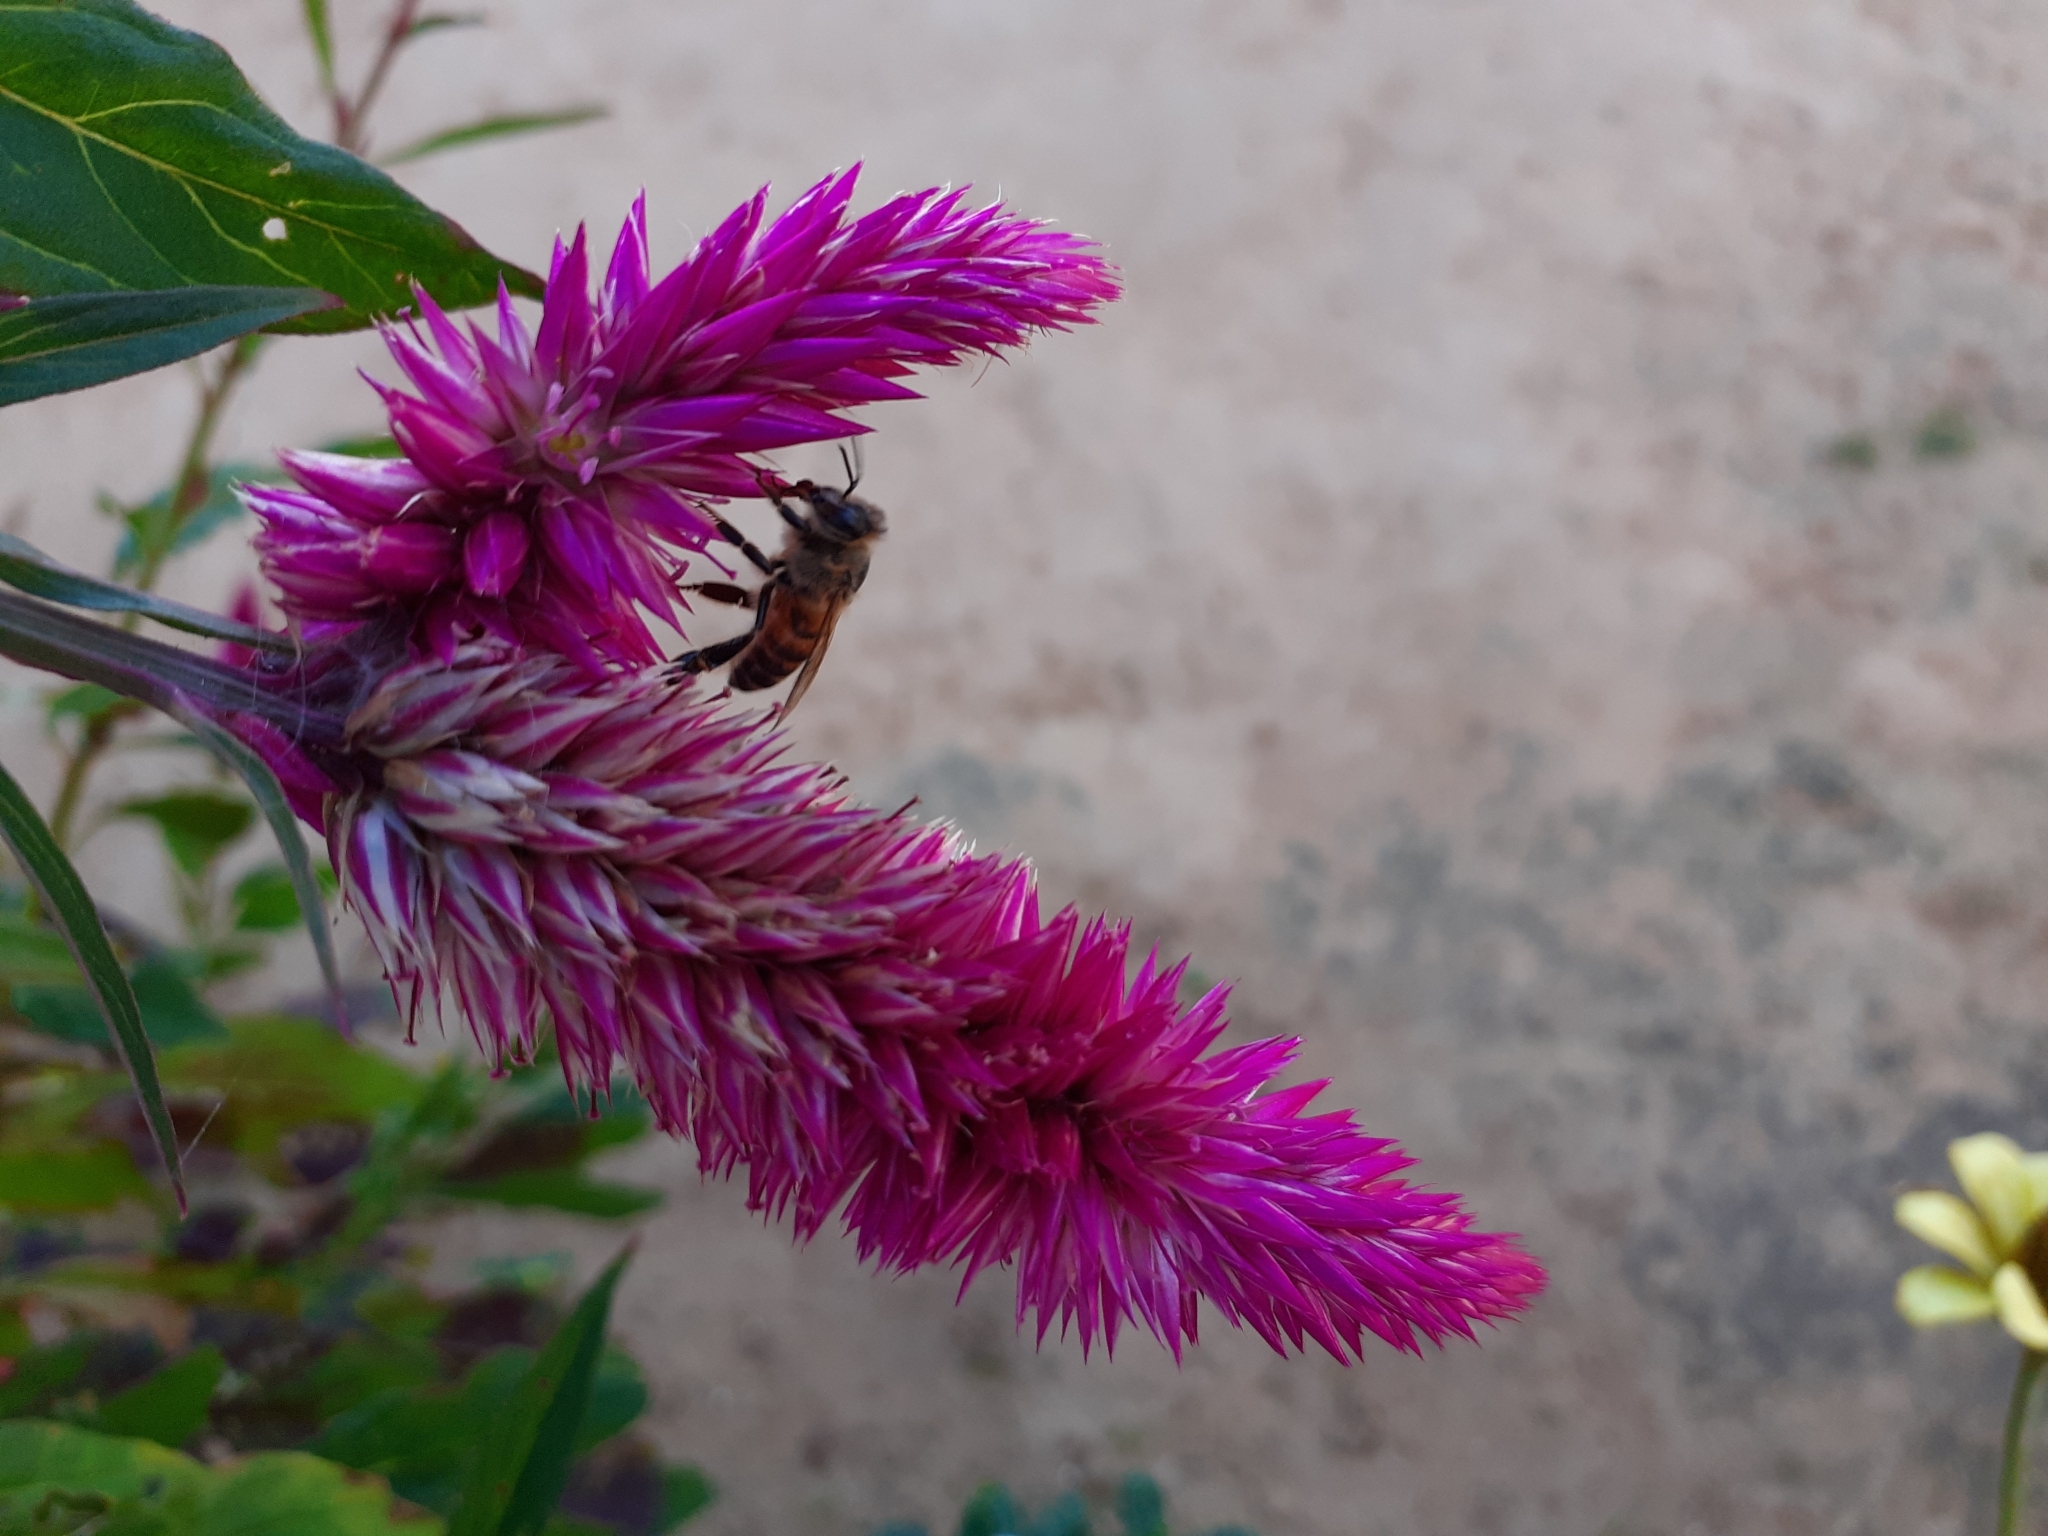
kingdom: Animalia
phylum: Arthropoda
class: Insecta
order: Hymenoptera
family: Apidae
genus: Apis
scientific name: Apis mellifera
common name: Honey bee
